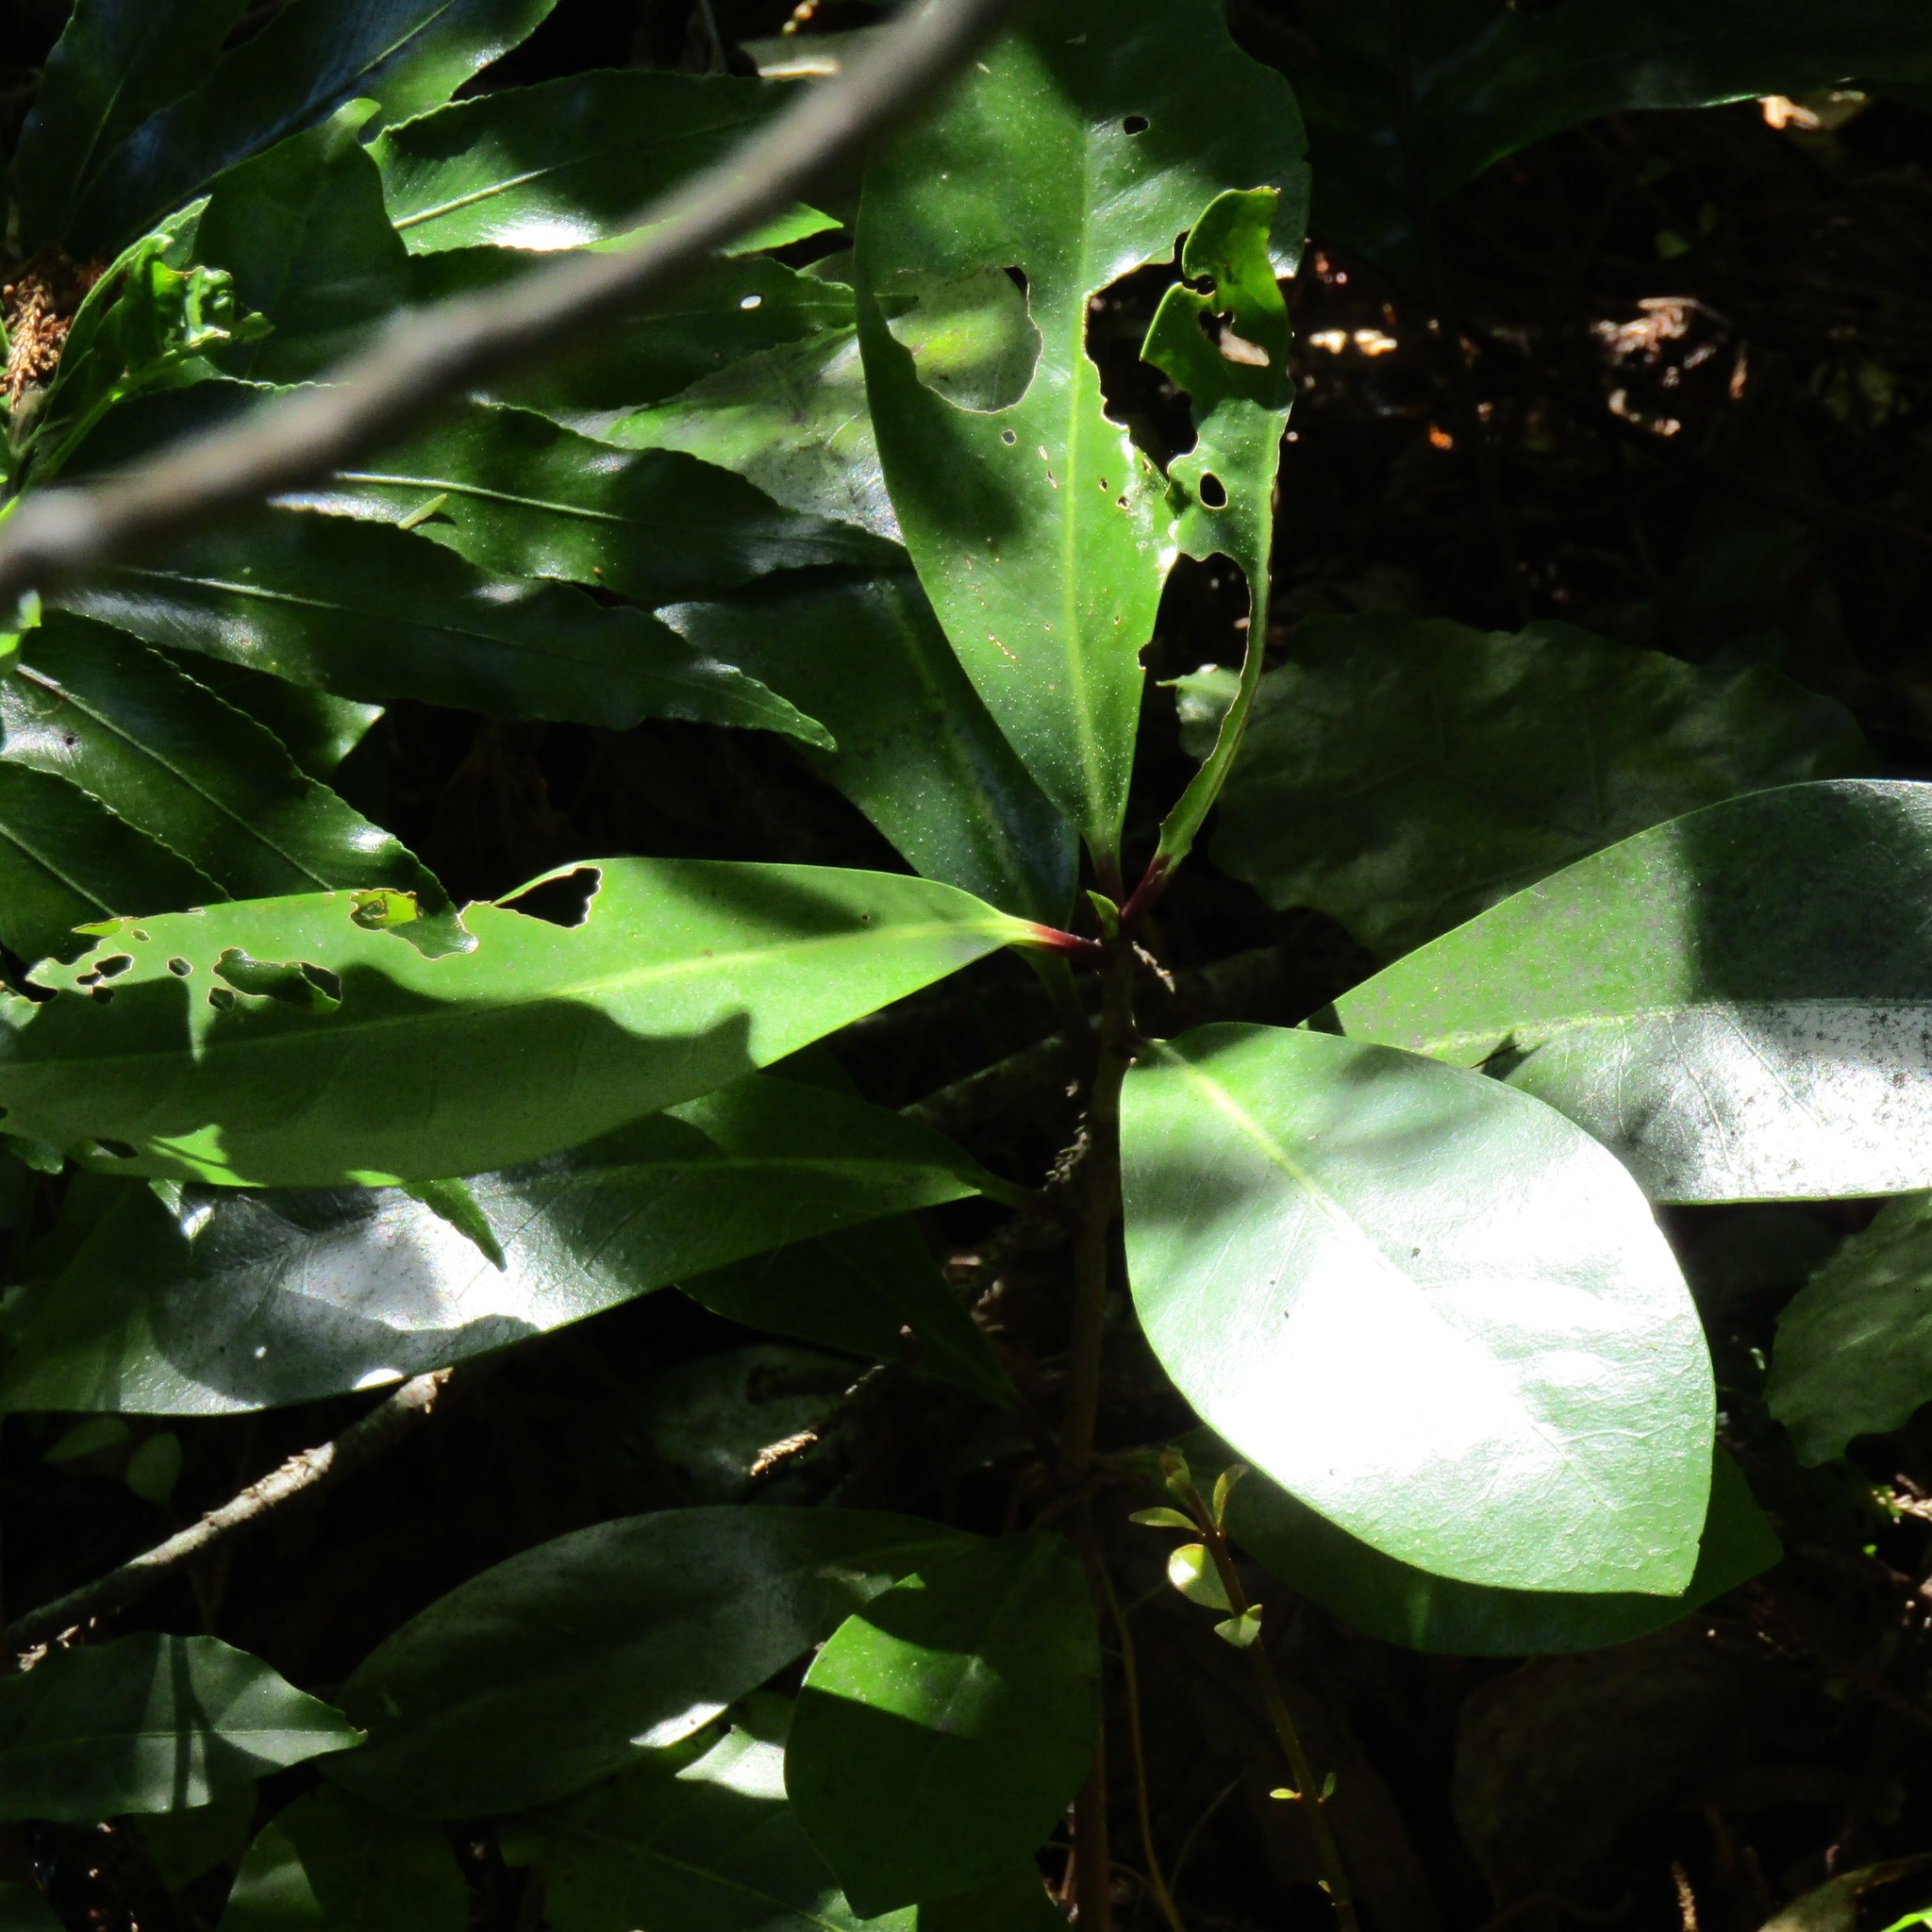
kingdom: Plantae
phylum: Tracheophyta
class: Magnoliopsida
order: Cucurbitales
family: Corynocarpaceae
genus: Corynocarpus
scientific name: Corynocarpus laevigatus
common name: New zealand laurel
